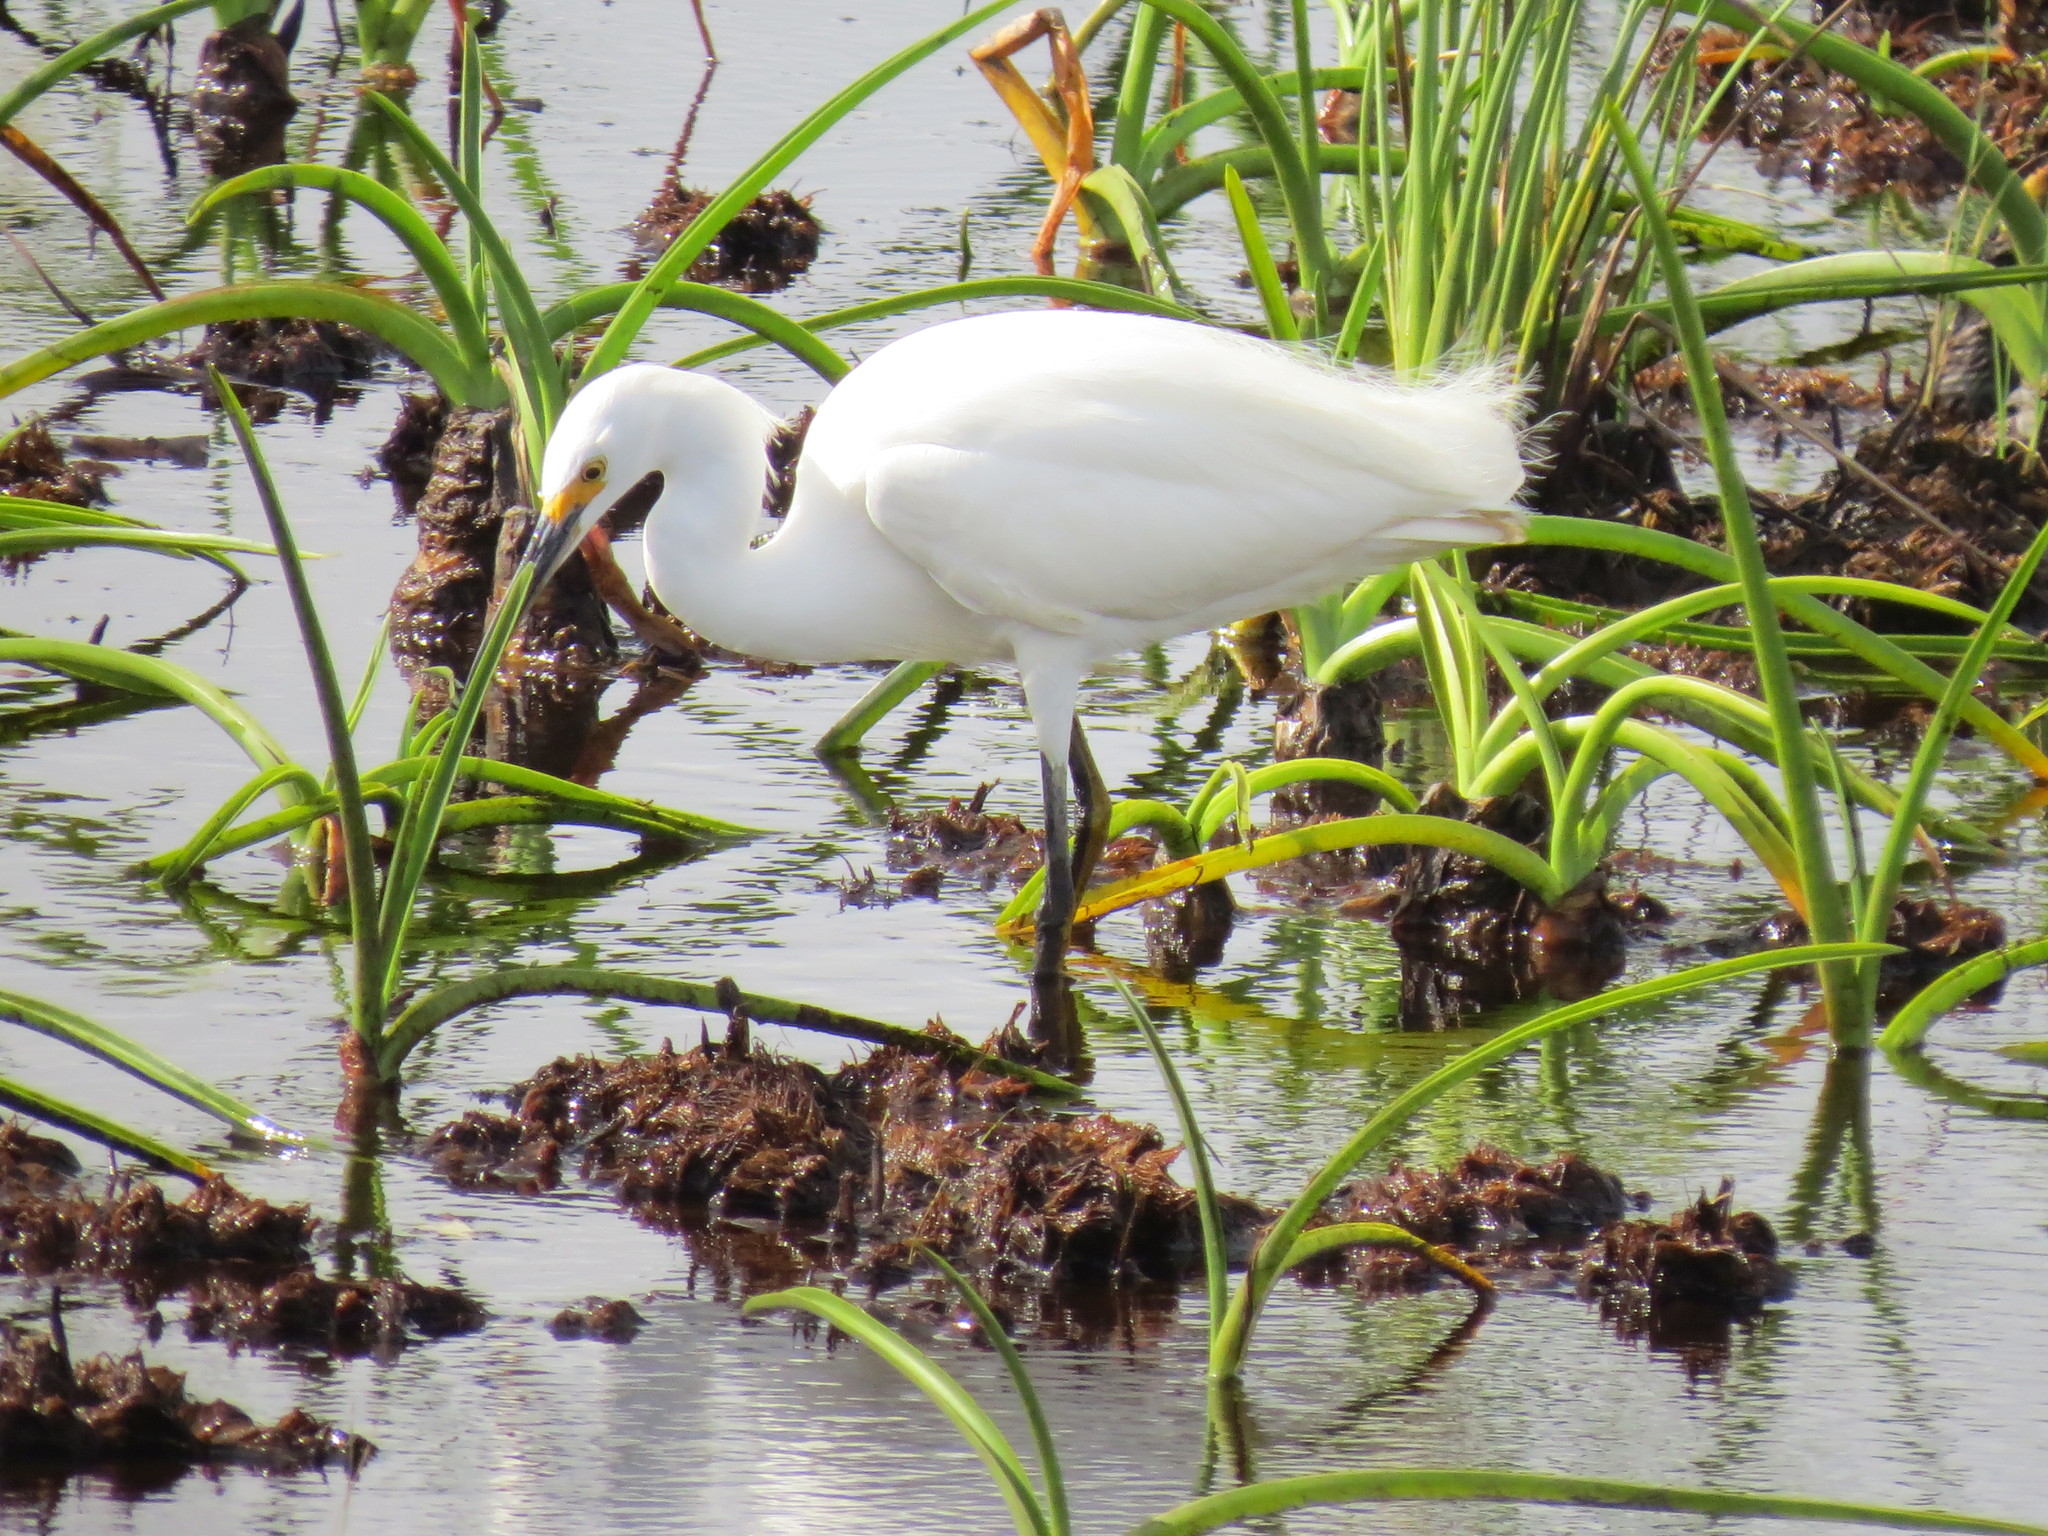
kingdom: Animalia
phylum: Chordata
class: Aves
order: Pelecaniformes
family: Ardeidae
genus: Egretta
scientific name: Egretta thula
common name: Snowy egret
